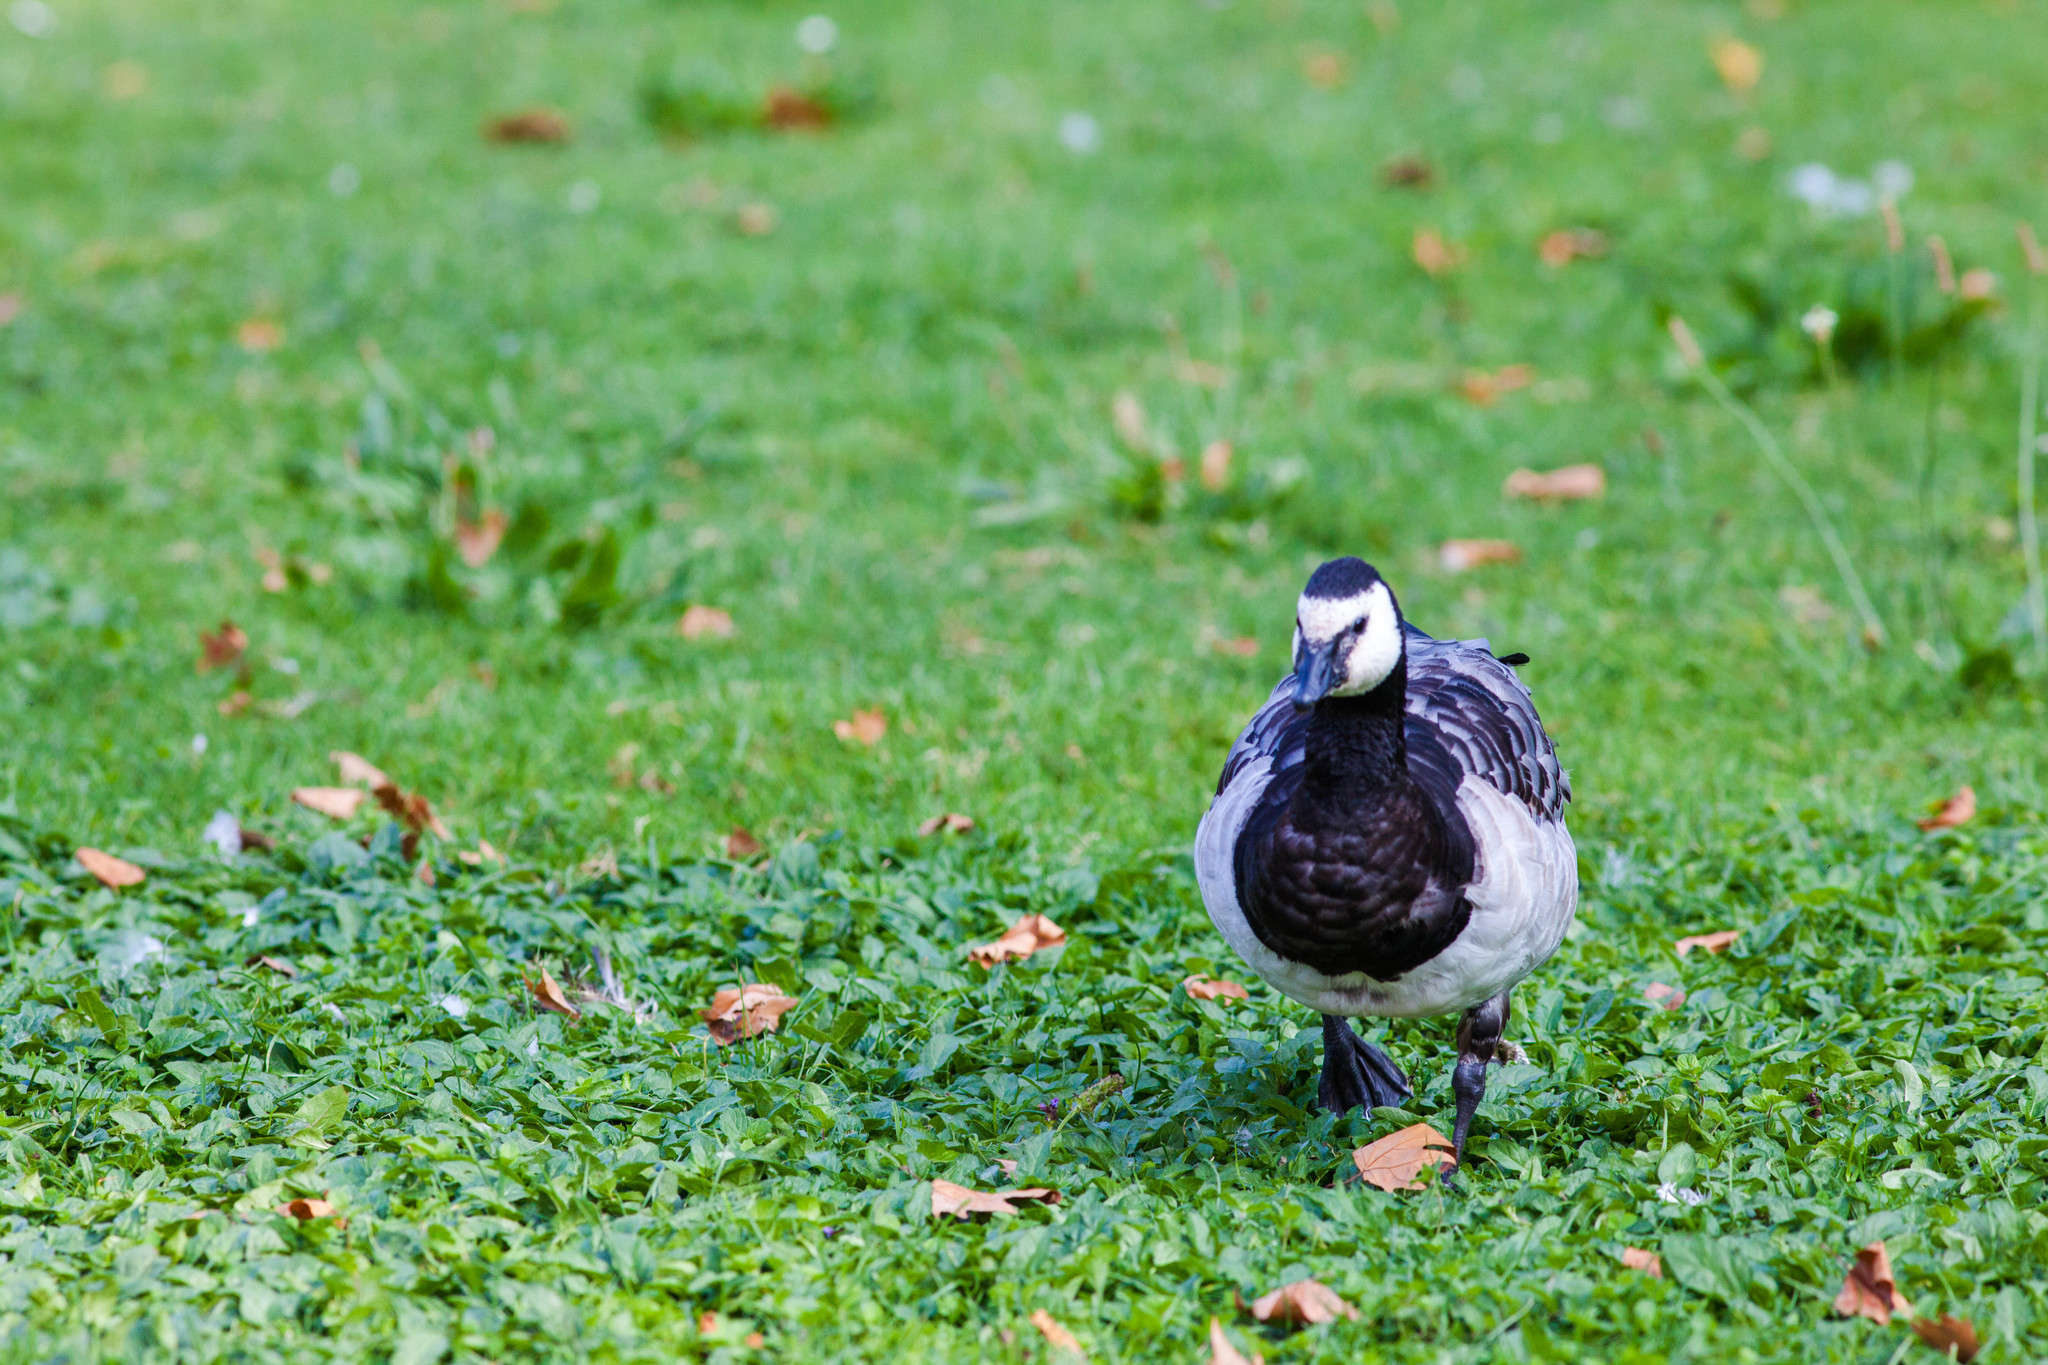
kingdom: Animalia
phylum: Chordata
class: Aves
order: Anseriformes
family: Anatidae
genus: Branta
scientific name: Branta leucopsis
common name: Barnacle goose
